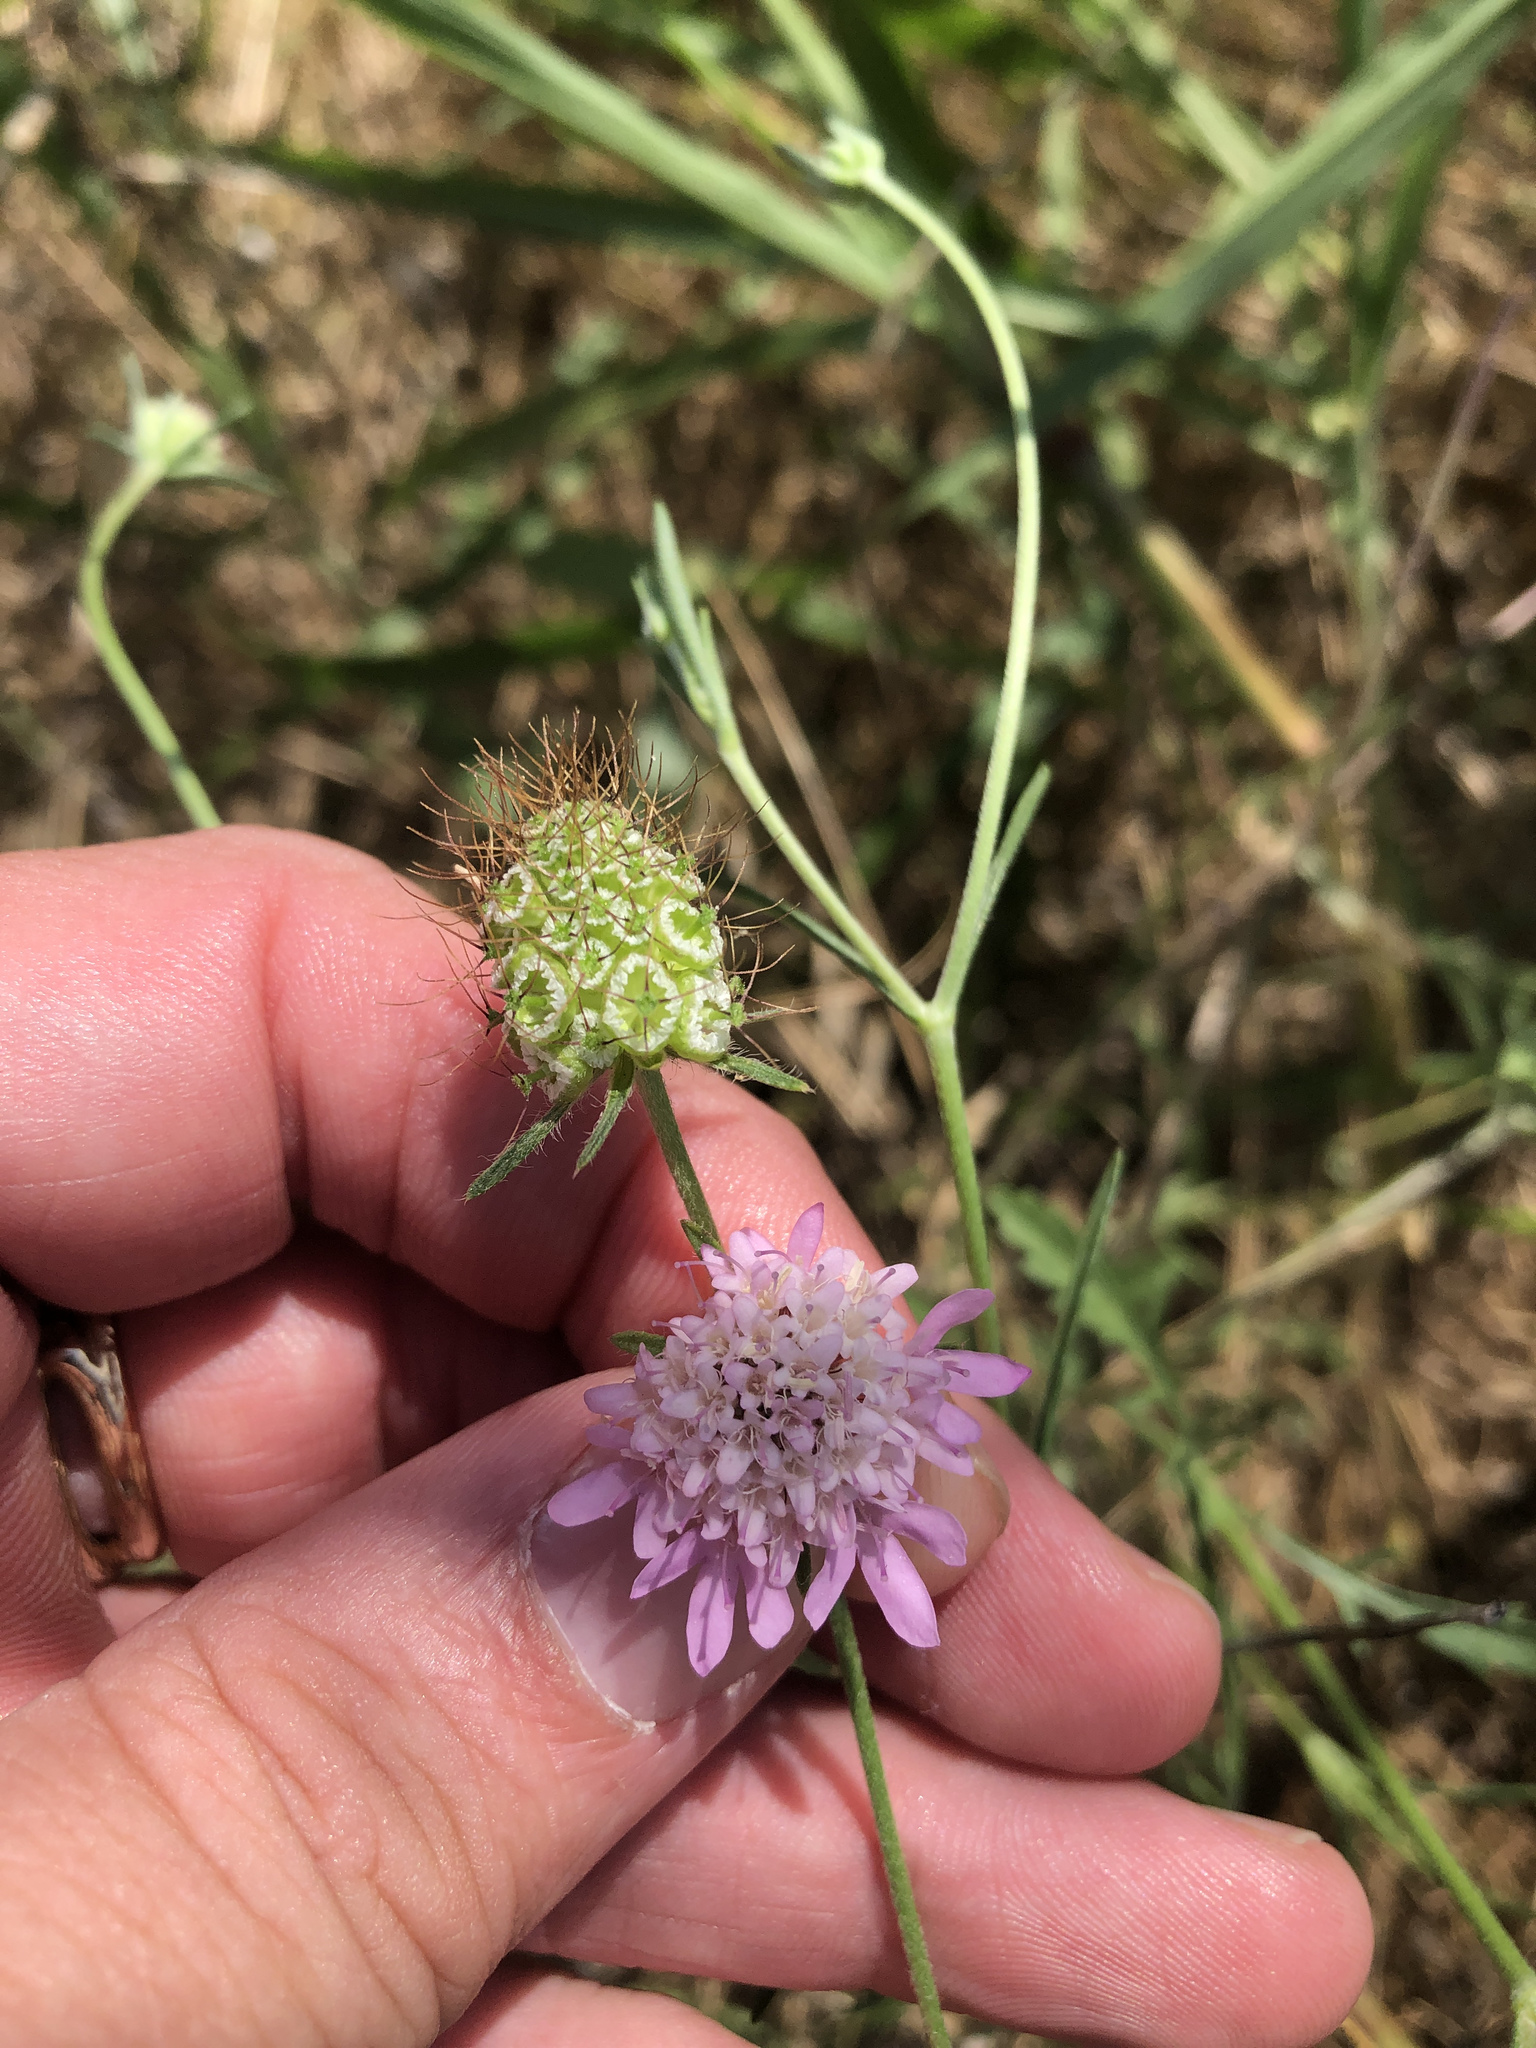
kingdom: Plantae
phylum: Tracheophyta
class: Magnoliopsida
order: Dipsacales
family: Caprifoliaceae
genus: Sixalix
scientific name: Sixalix atropurpurea
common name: Sweet scabious
